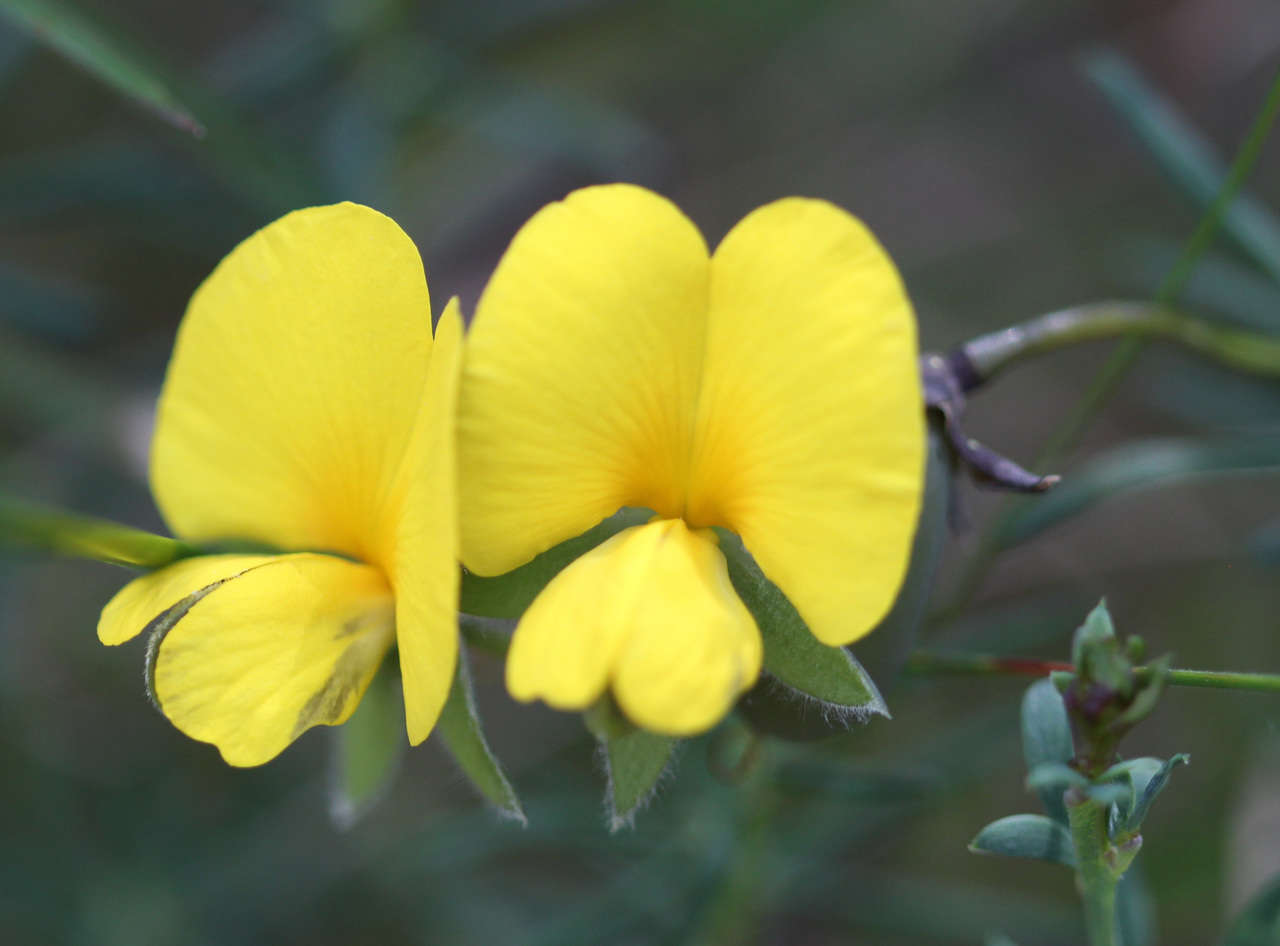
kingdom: Plantae
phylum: Tracheophyta
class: Magnoliopsida
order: Fabales
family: Fabaceae
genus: Gompholobium
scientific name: Gompholobium huegelii
